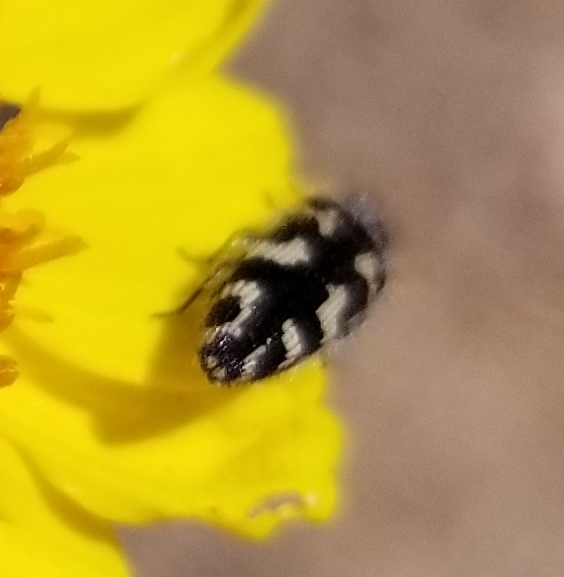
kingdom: Animalia
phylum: Arthropoda
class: Insecta
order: Coleoptera
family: Buprestidae
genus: Acmaeodera
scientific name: Acmaeodera linsleyi
